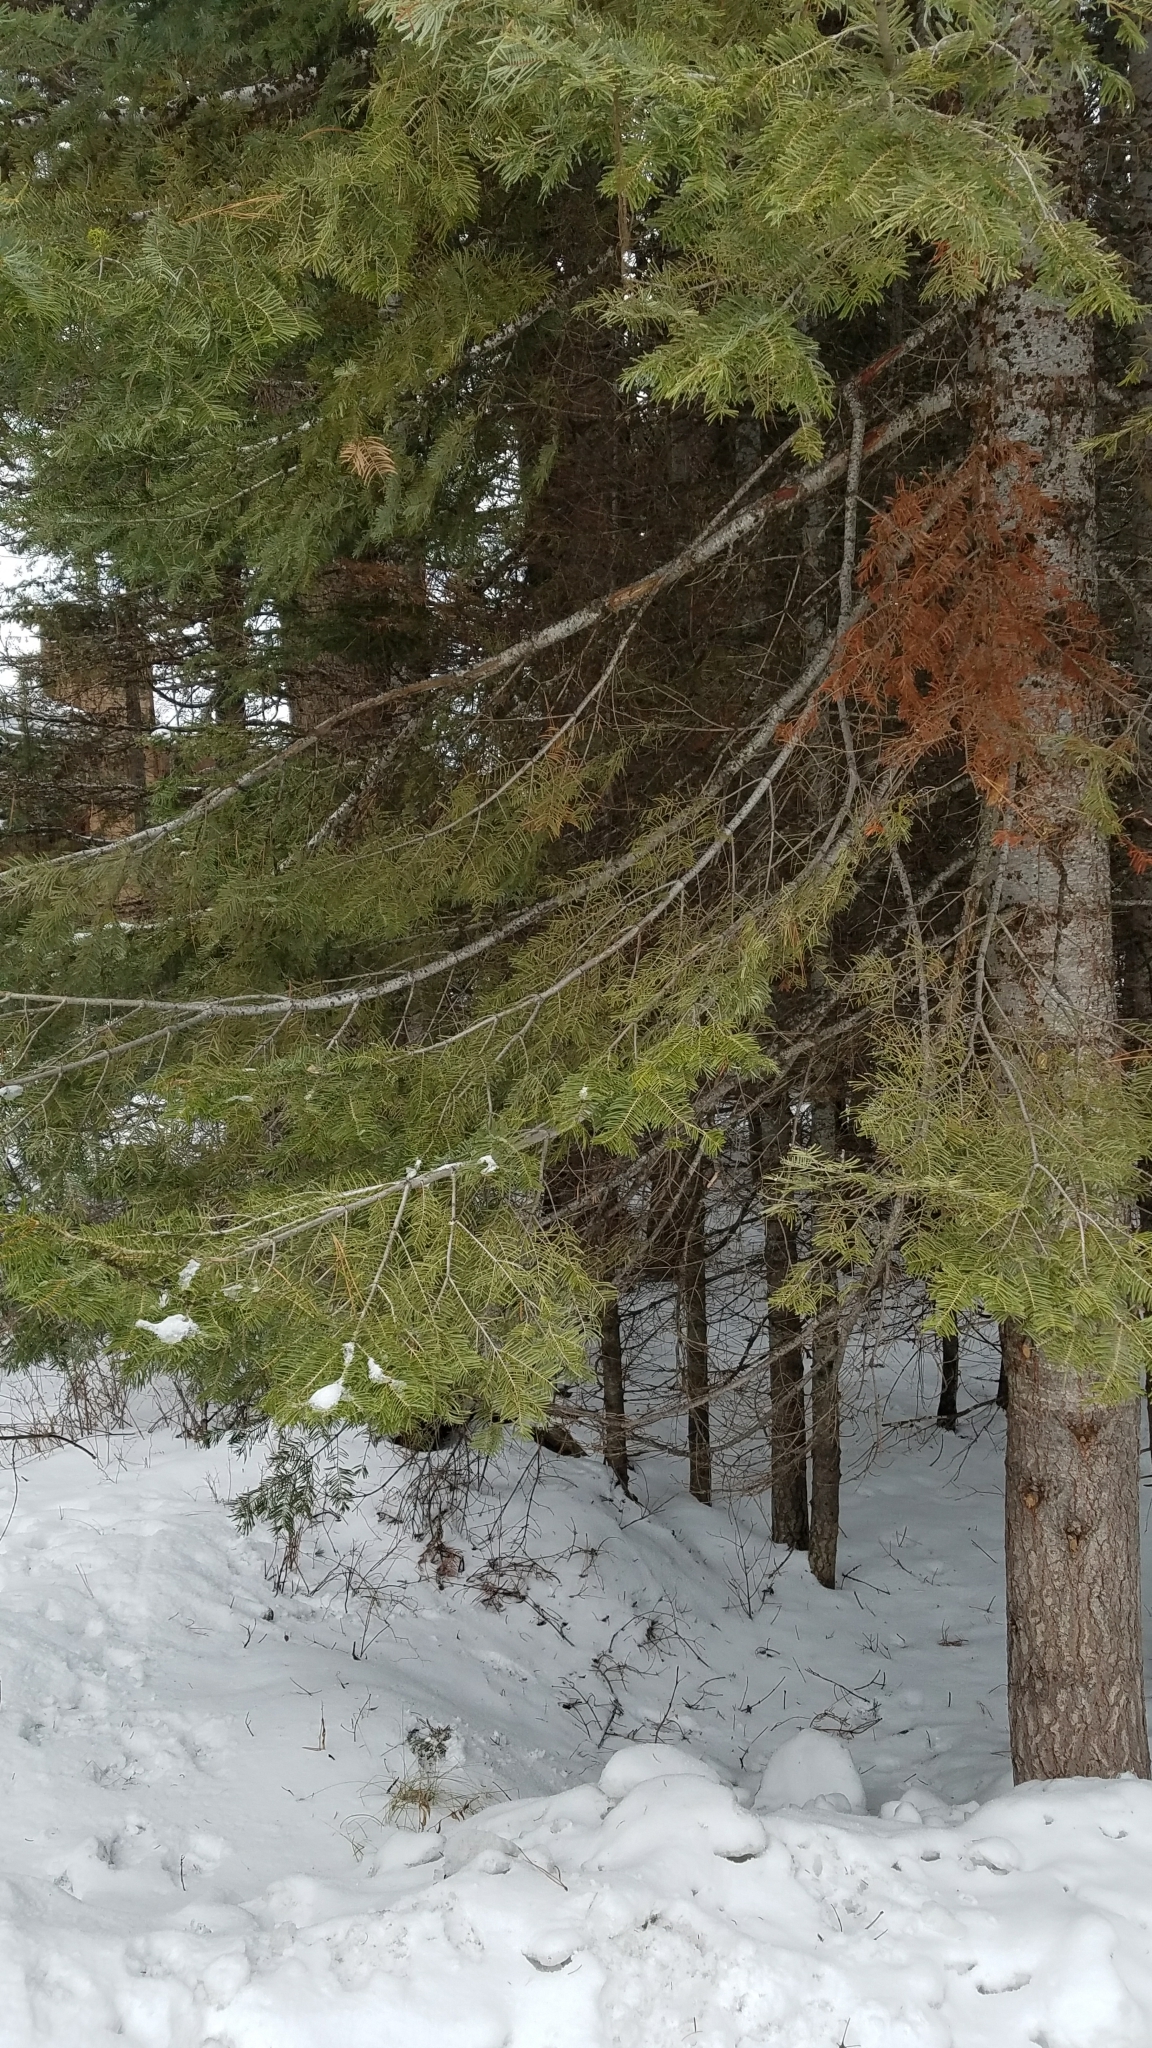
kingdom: Plantae
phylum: Tracheophyta
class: Pinopsida
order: Pinales
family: Pinaceae
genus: Abies
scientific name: Abies grandis
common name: Giant fir
